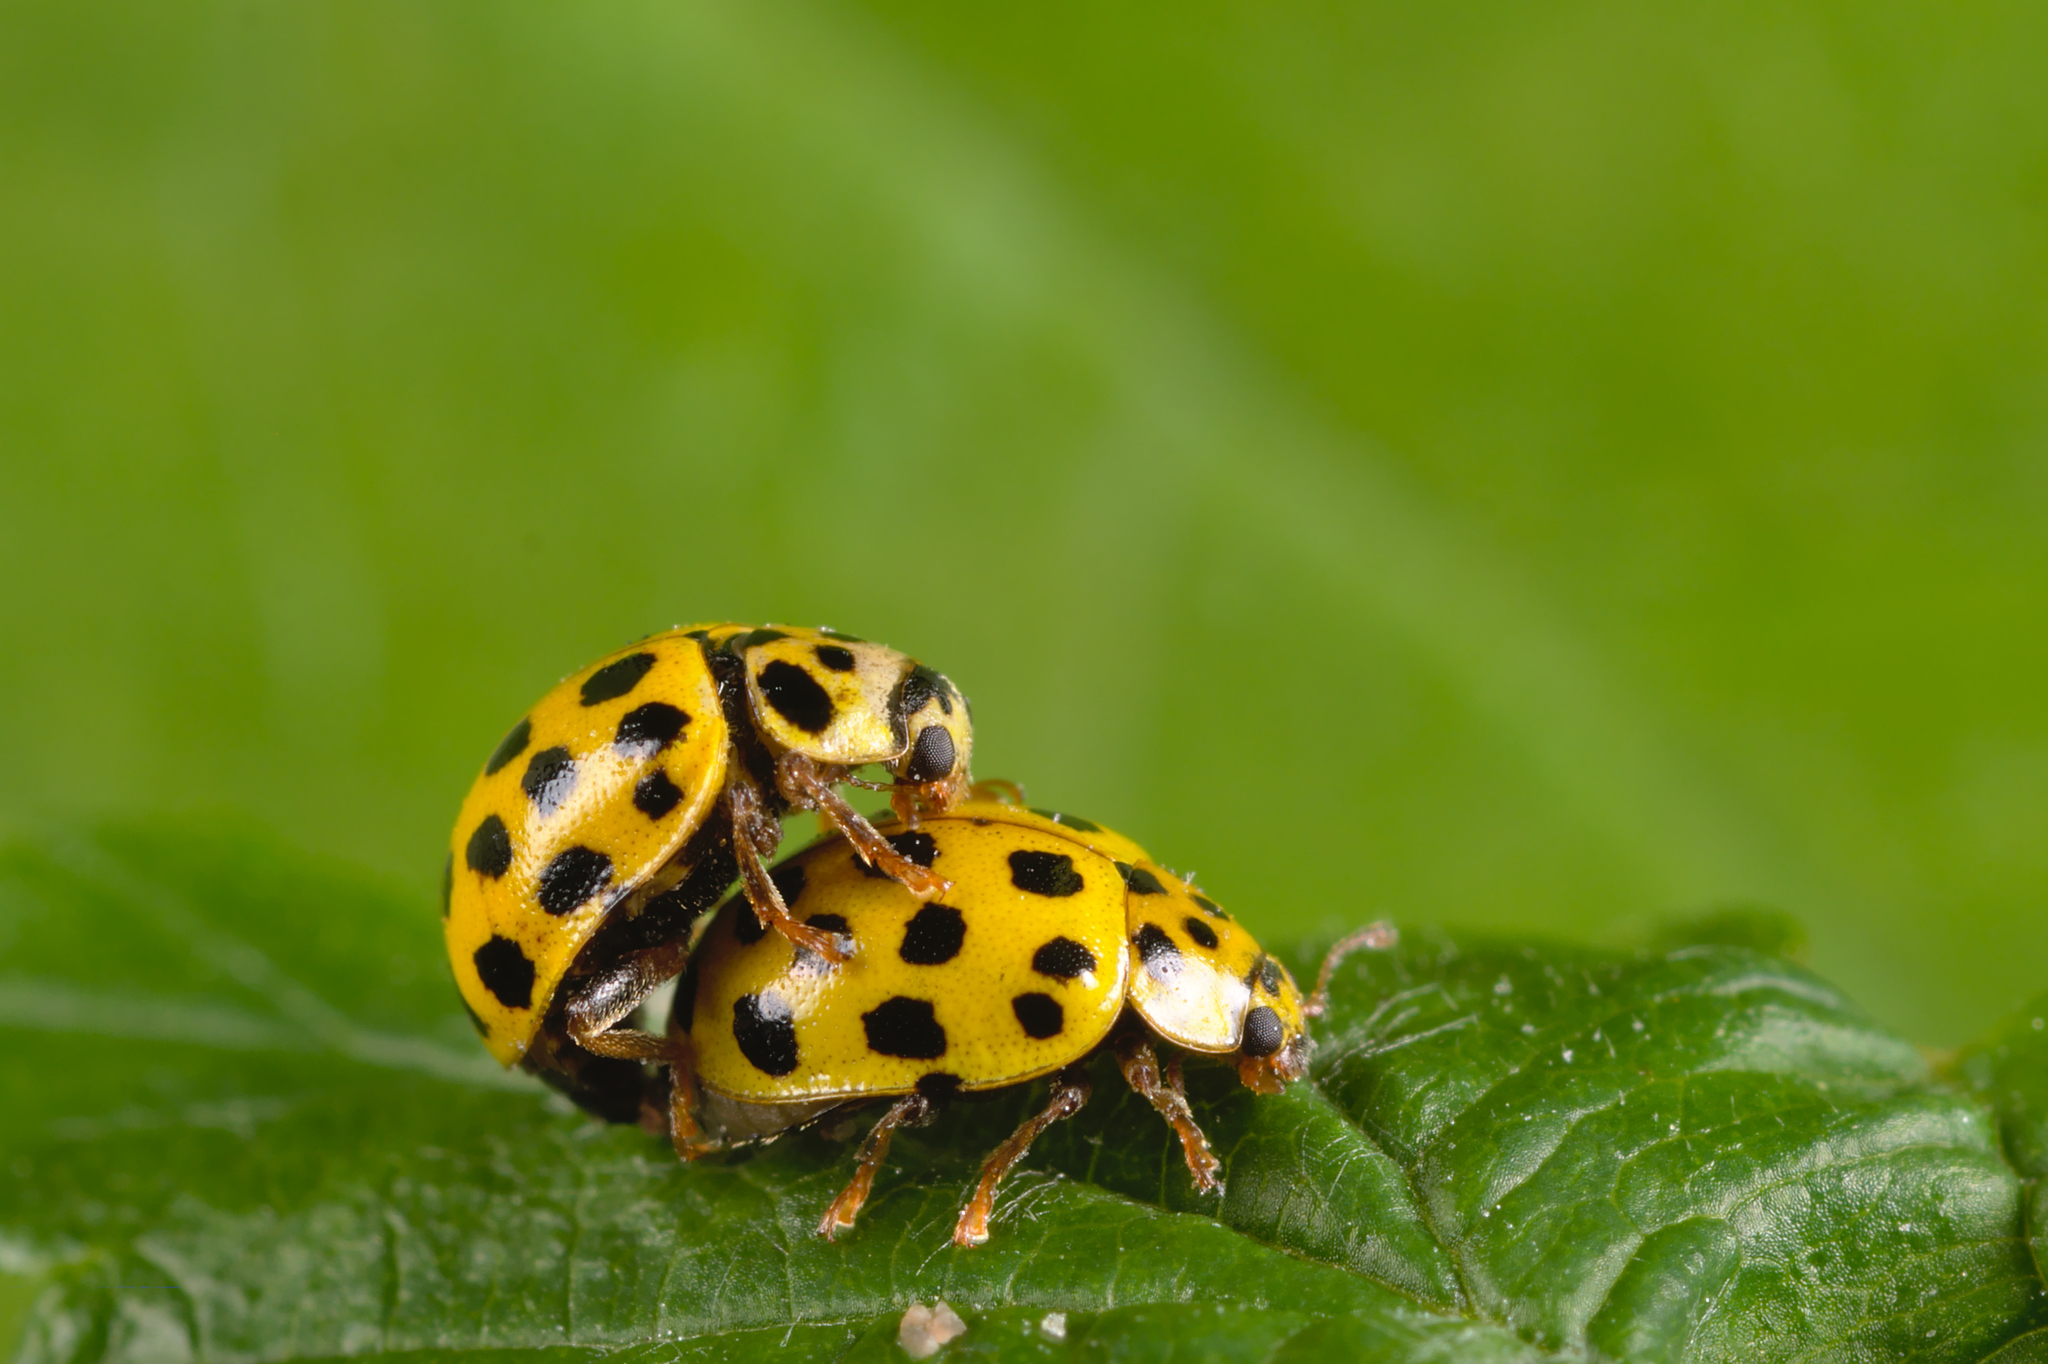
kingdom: Animalia
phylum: Arthropoda
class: Insecta
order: Coleoptera
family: Coccinellidae
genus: Psyllobora
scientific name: Psyllobora vigintiduopunctata
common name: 22-spot ladybird
